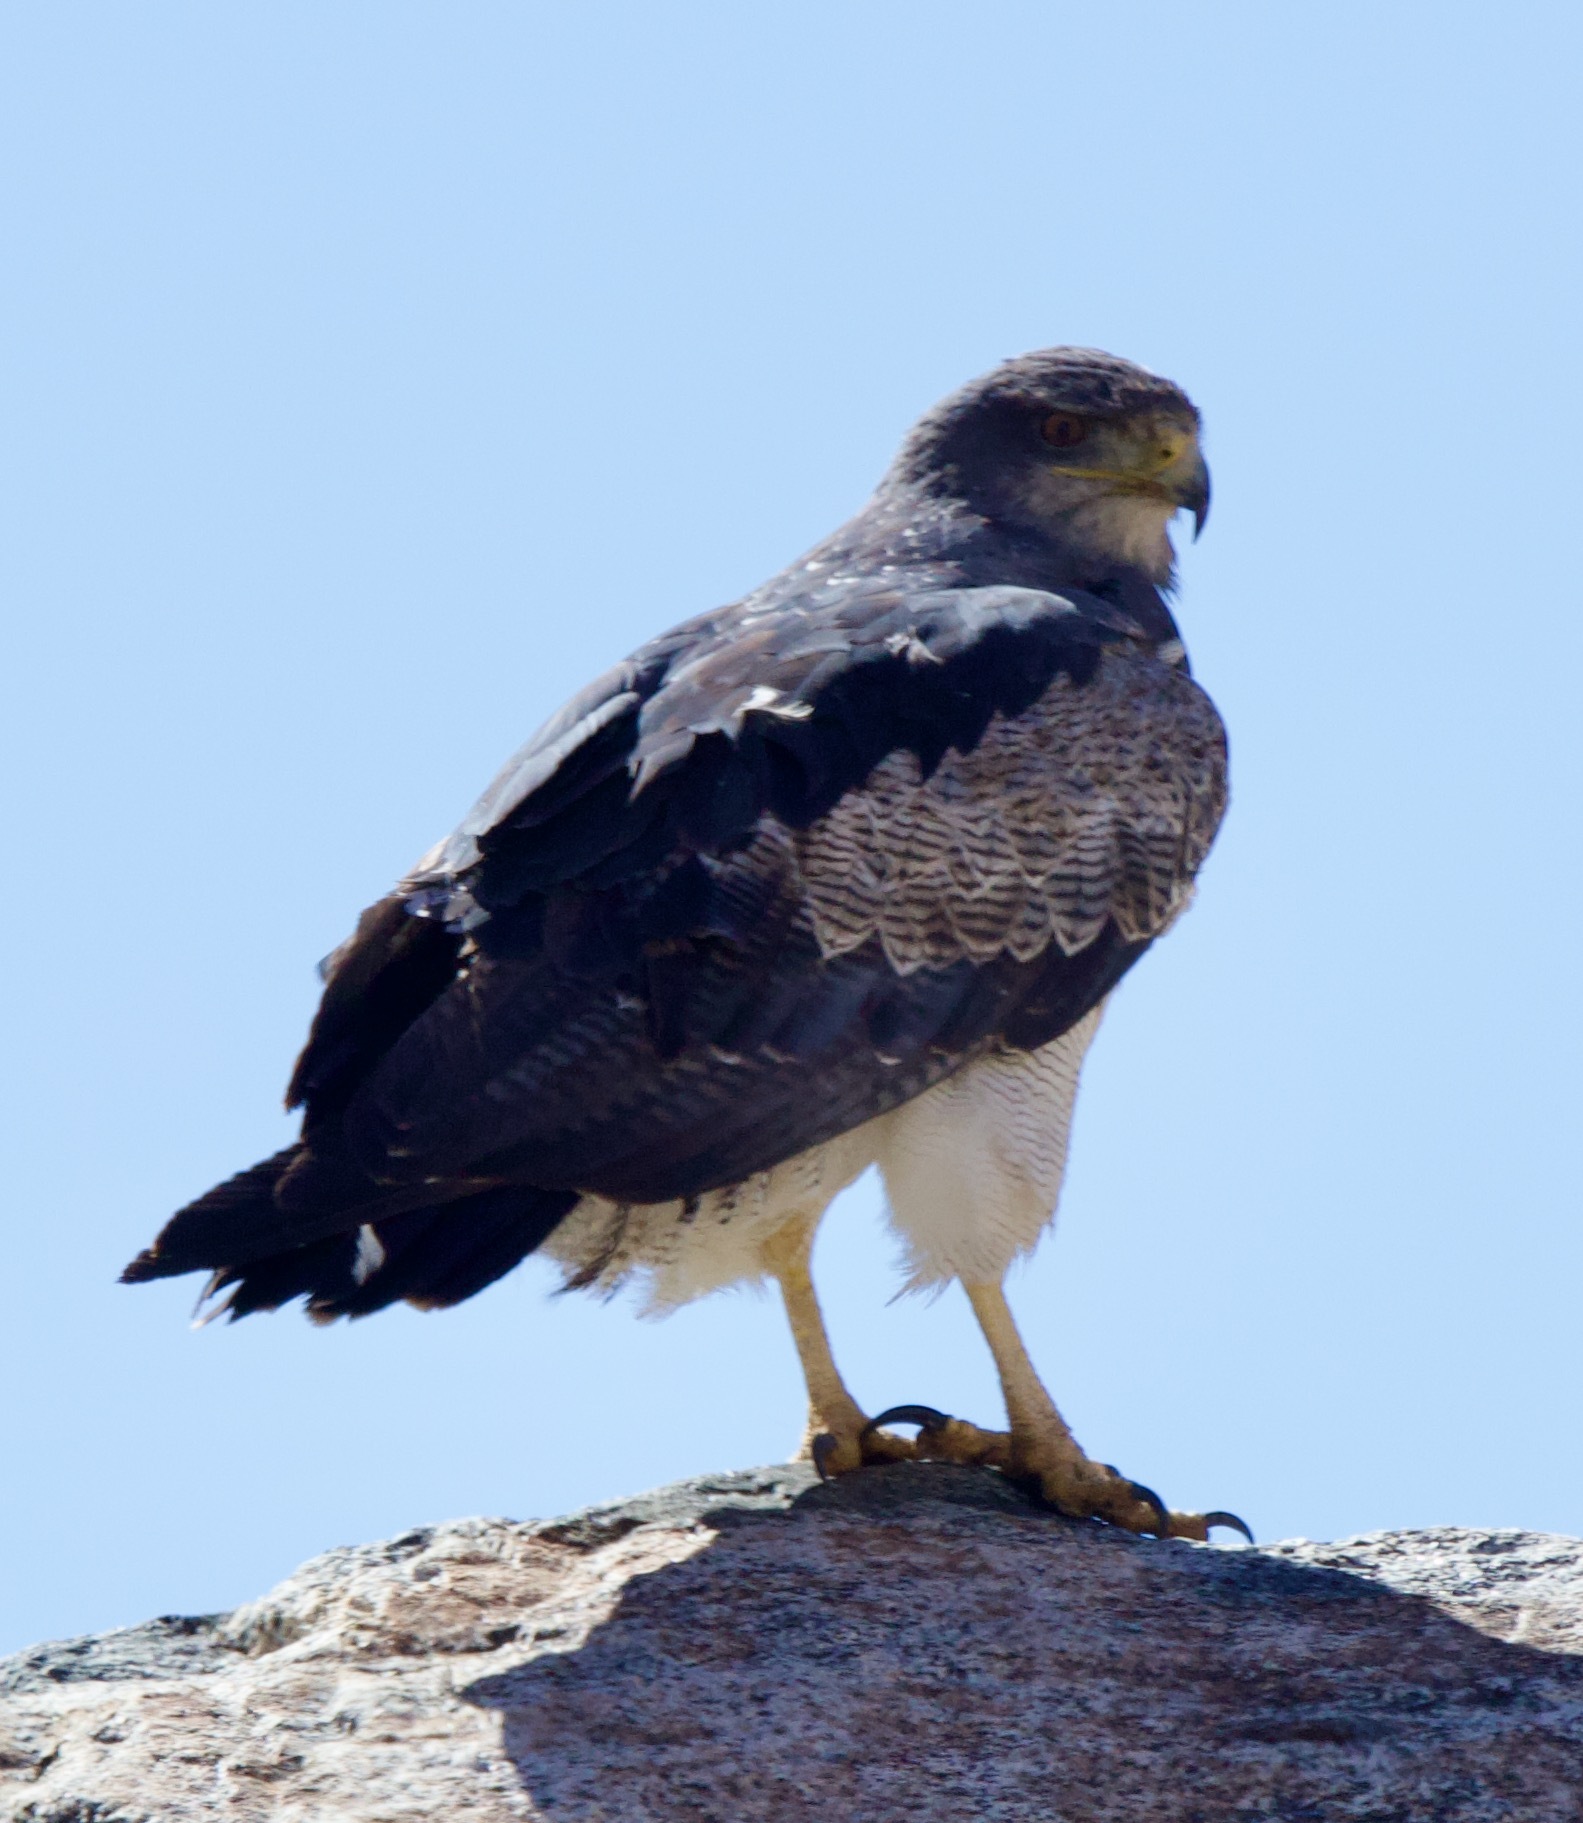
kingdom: Animalia
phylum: Chordata
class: Aves
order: Accipitriformes
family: Accipitridae
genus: Geranoaetus
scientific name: Geranoaetus melanoleucus
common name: Black-chested buzzard-eagle
